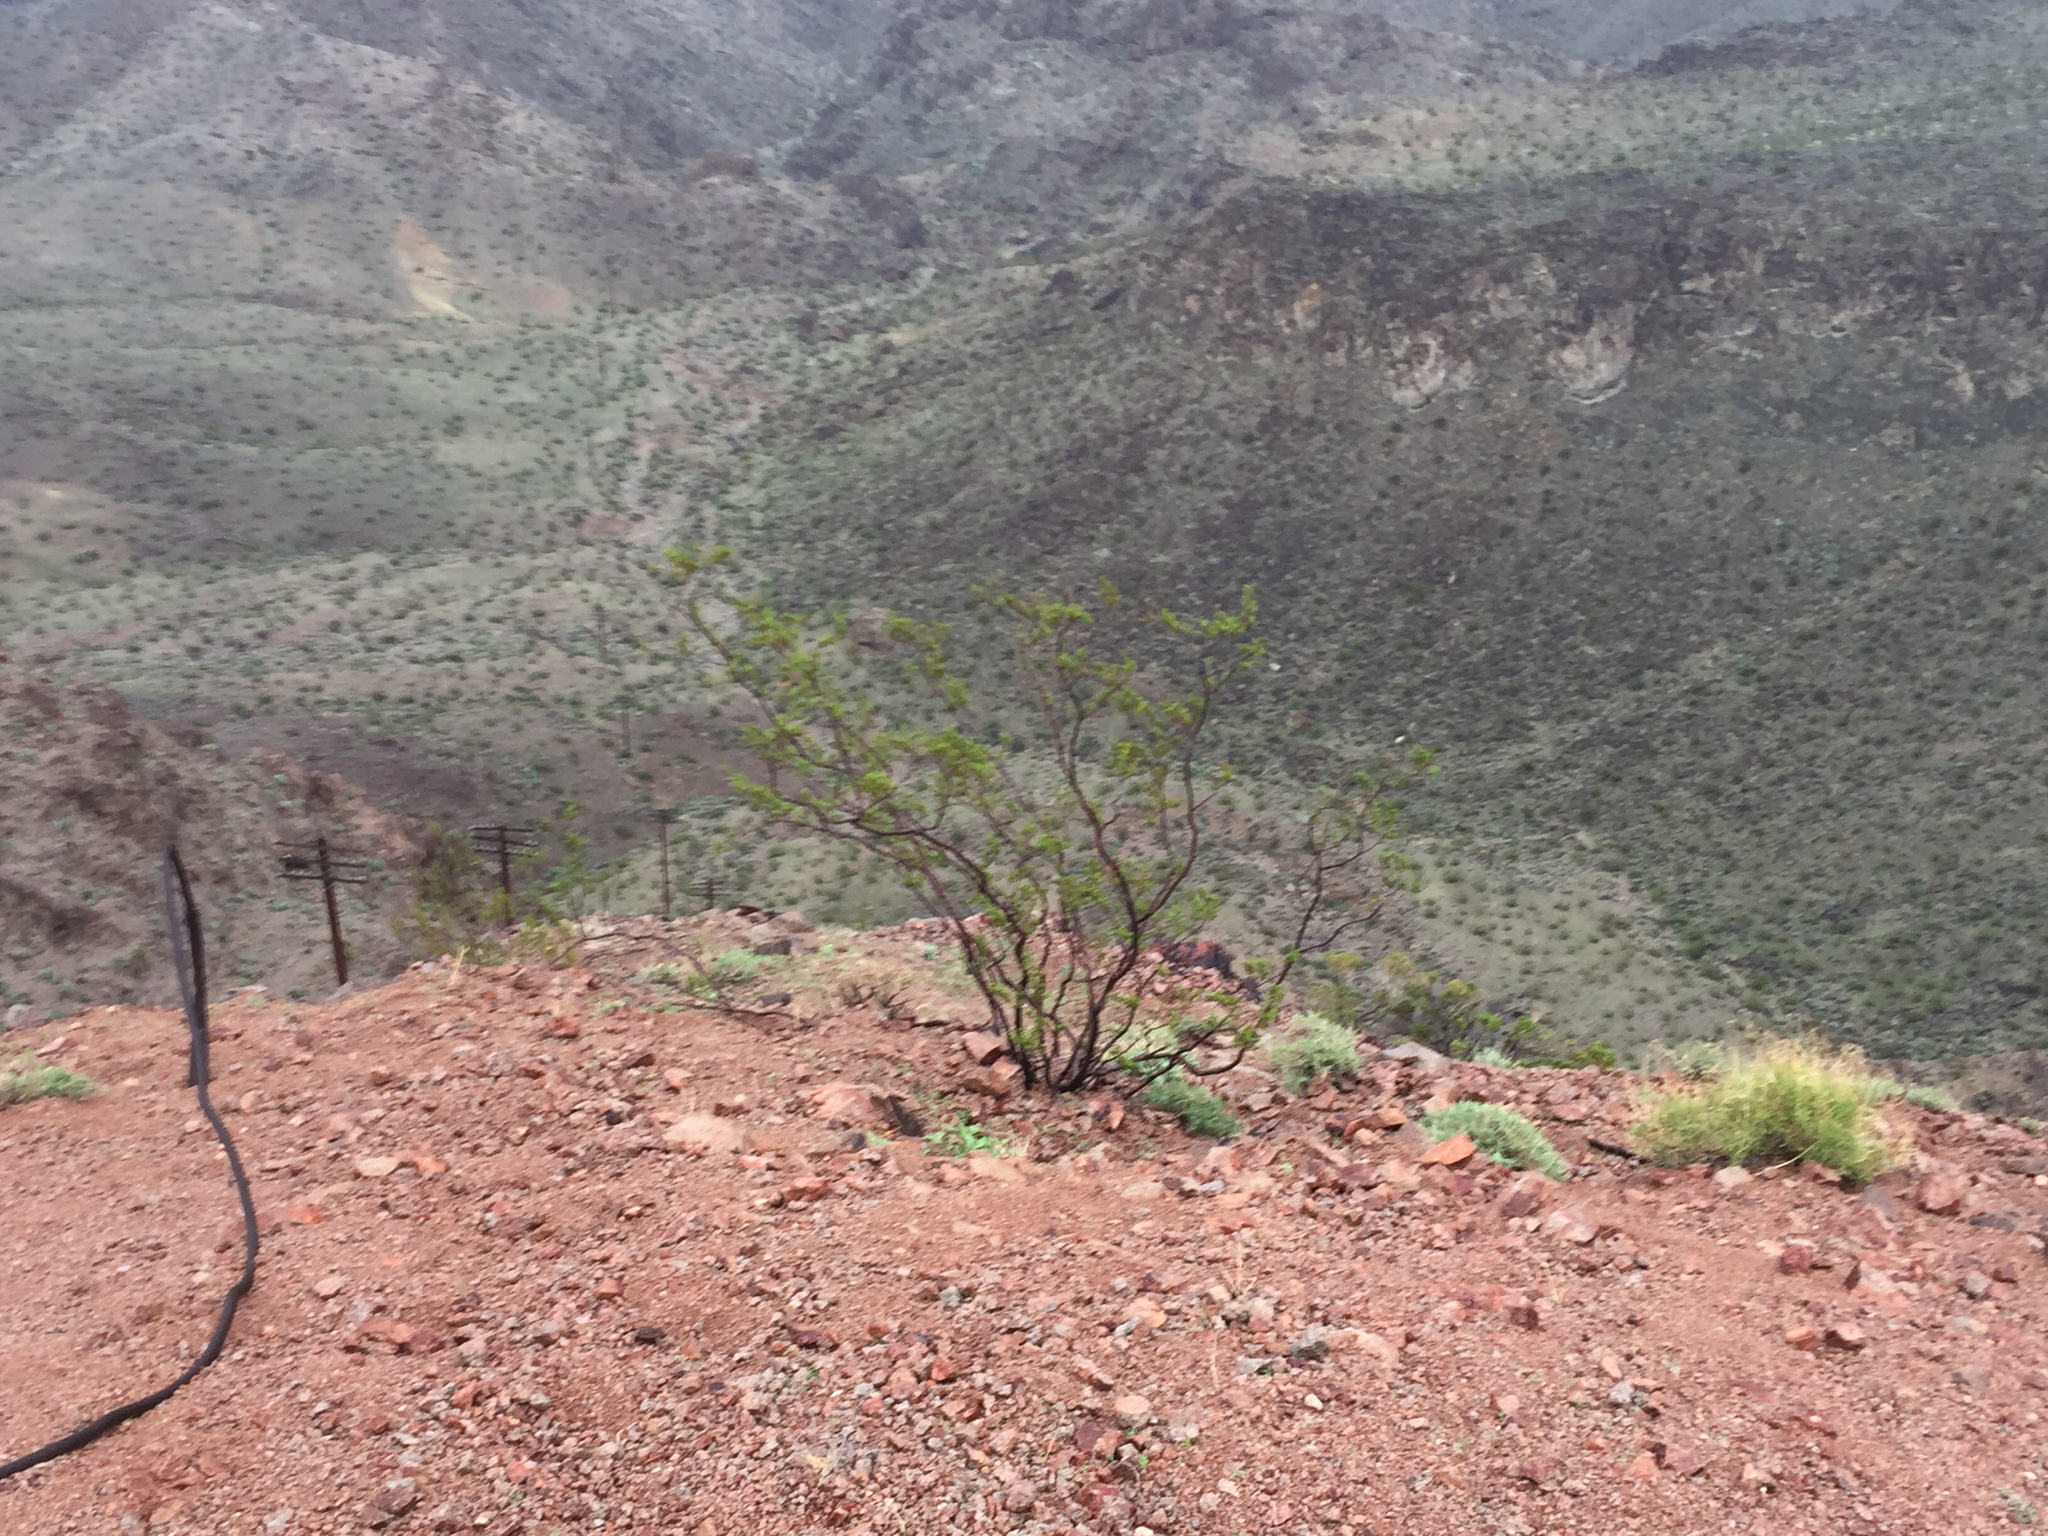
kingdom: Plantae
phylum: Tracheophyta
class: Magnoliopsida
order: Zygophyllales
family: Zygophyllaceae
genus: Larrea
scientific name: Larrea tridentata
